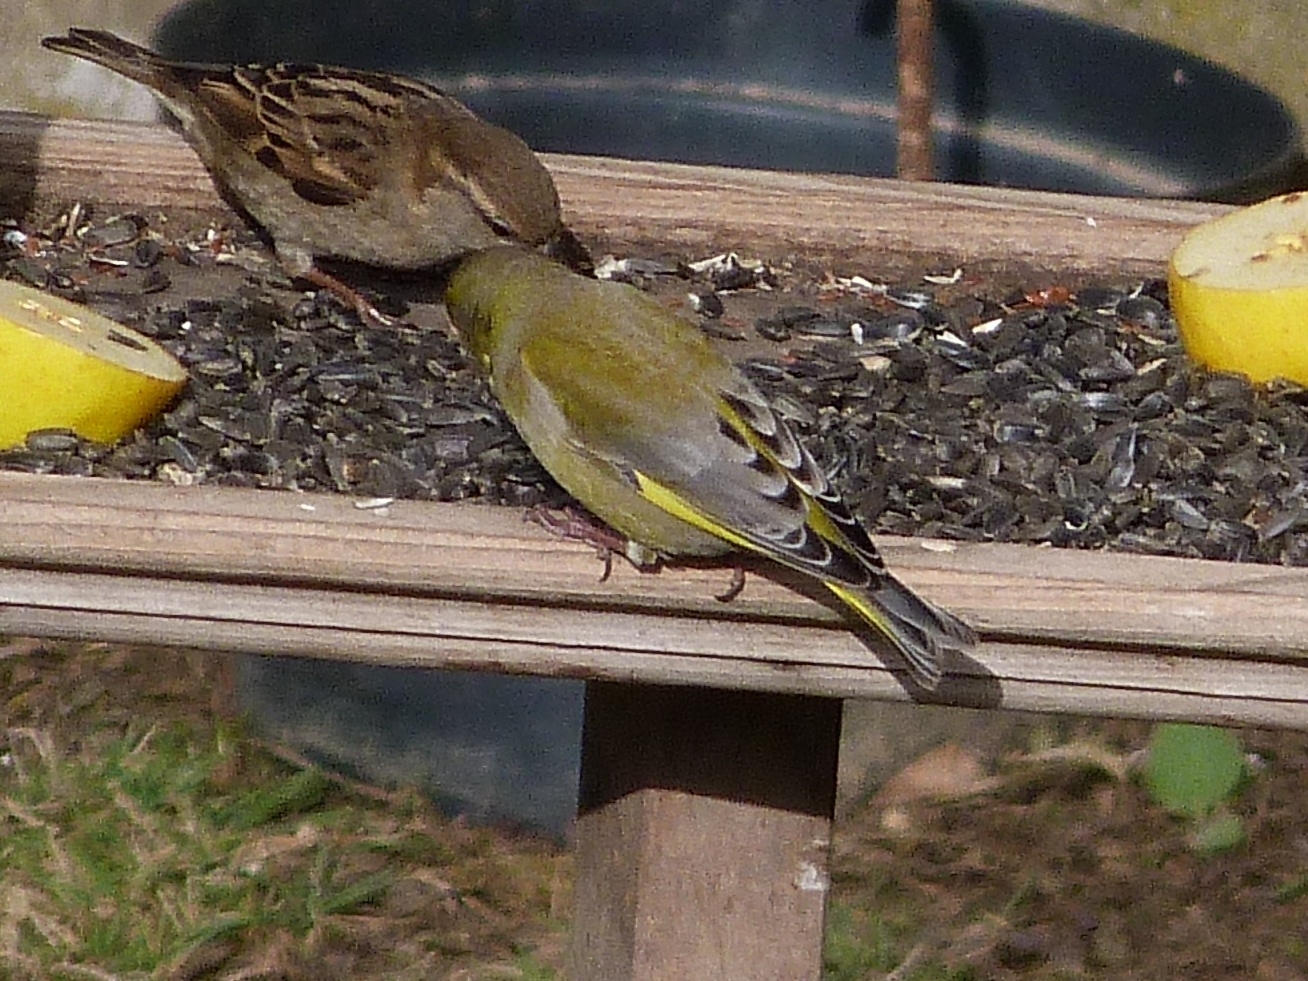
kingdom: Plantae
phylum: Tracheophyta
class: Liliopsida
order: Poales
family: Poaceae
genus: Chloris
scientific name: Chloris chloris
